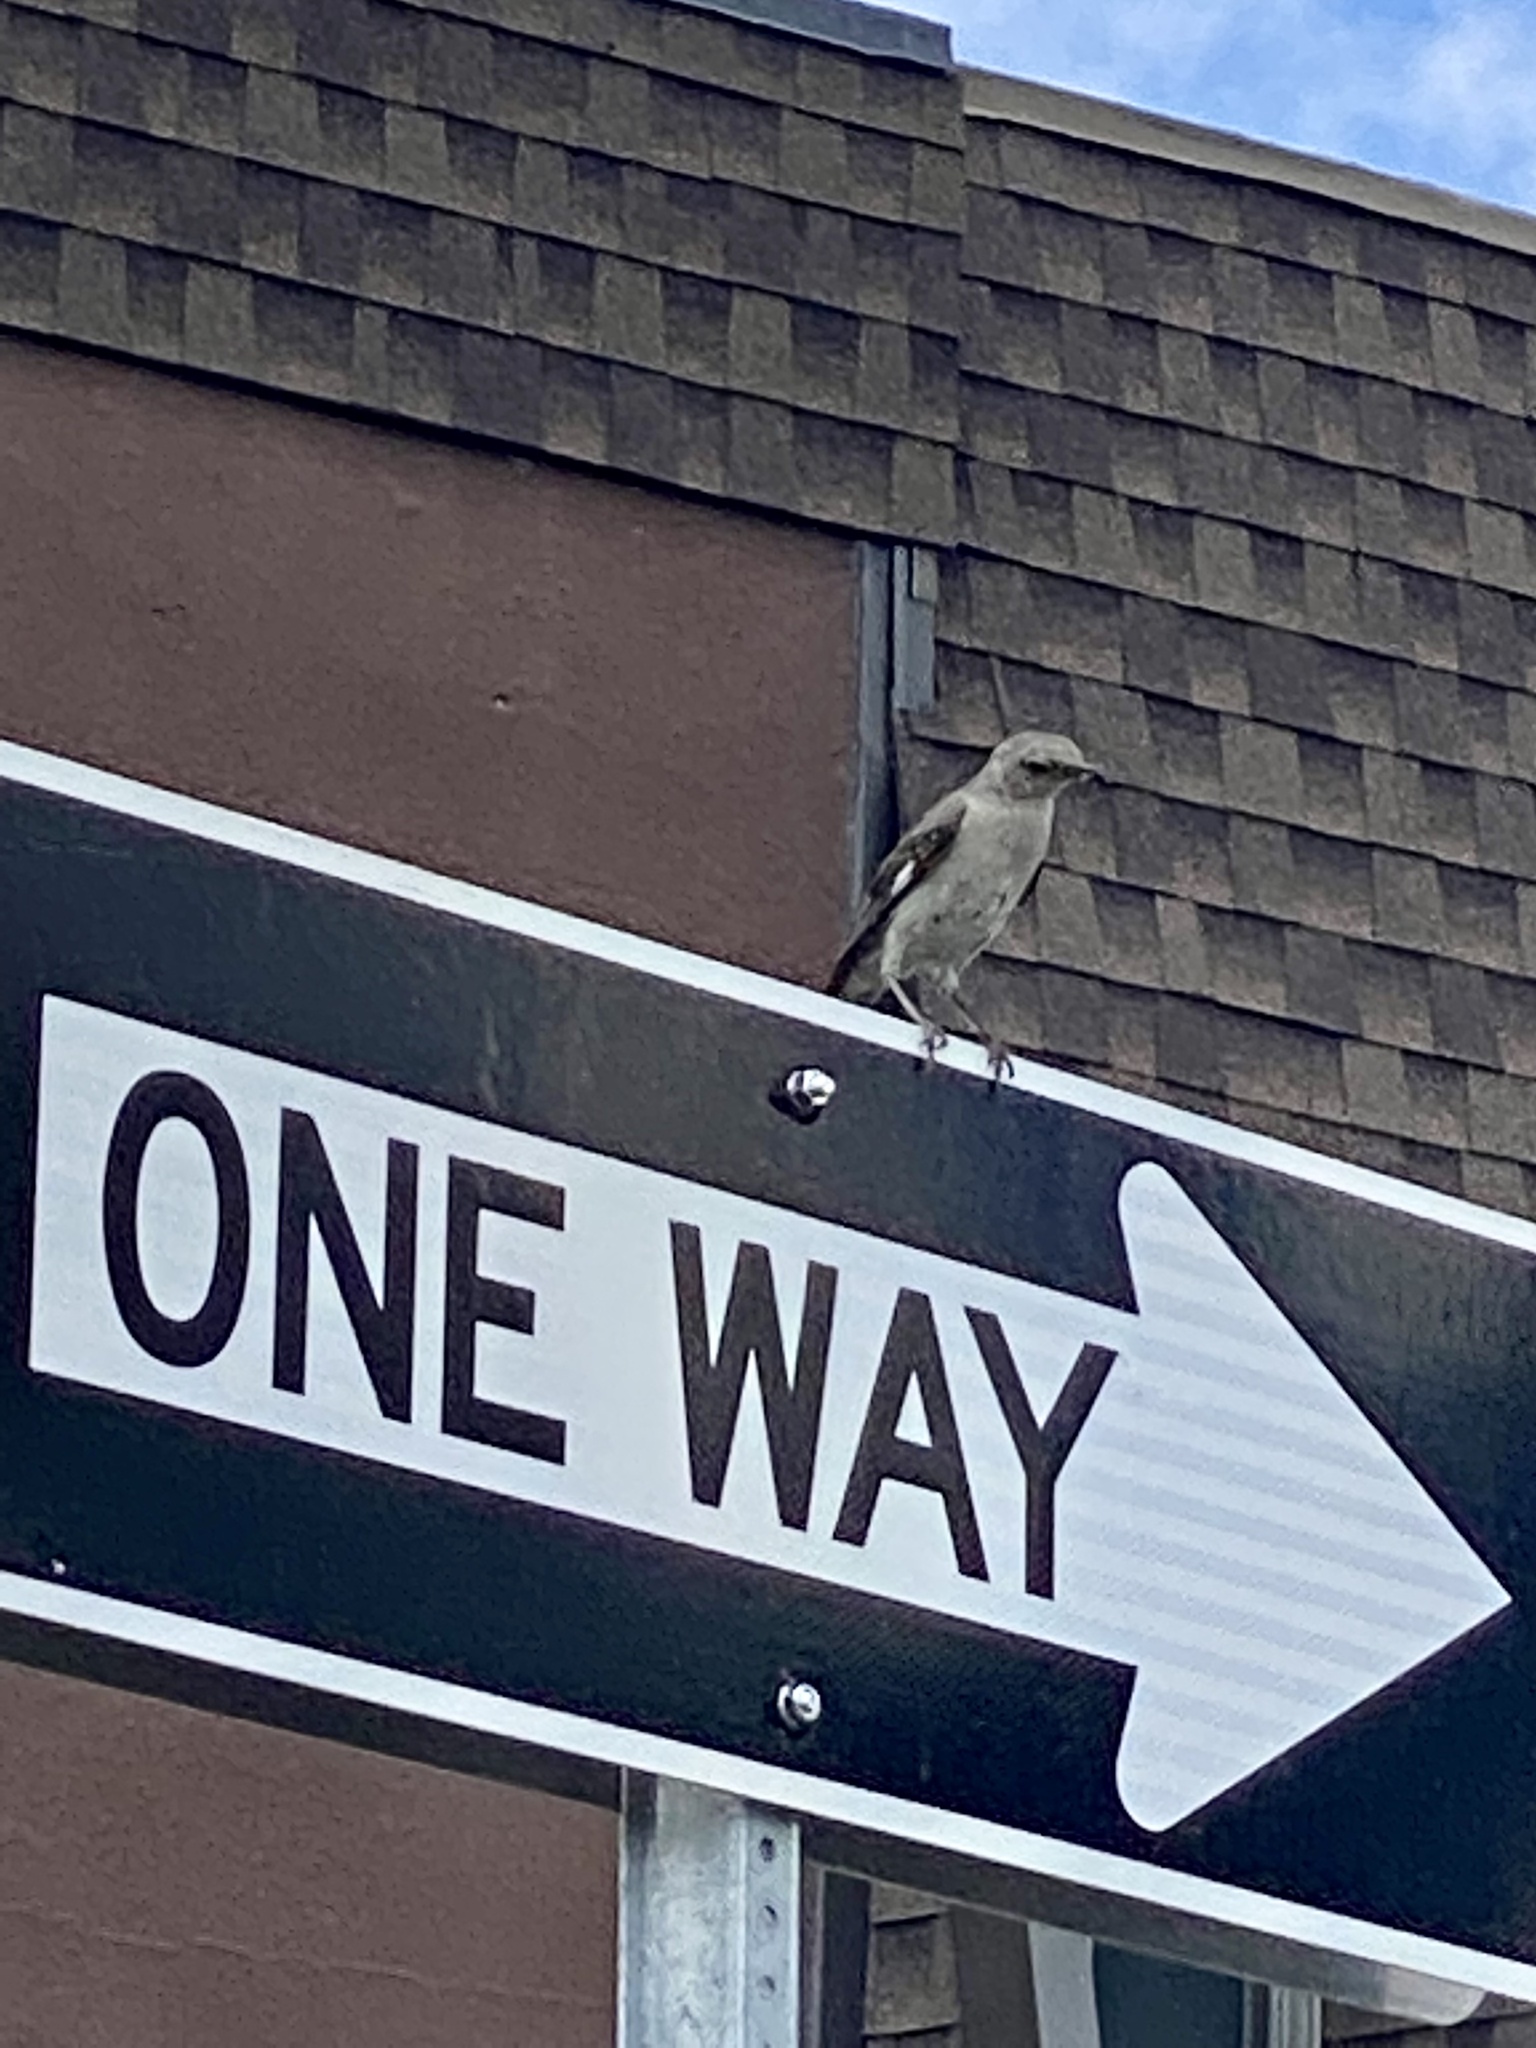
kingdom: Animalia
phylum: Chordata
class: Aves
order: Passeriformes
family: Mimidae
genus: Mimus
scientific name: Mimus polyglottos
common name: Northern mockingbird
